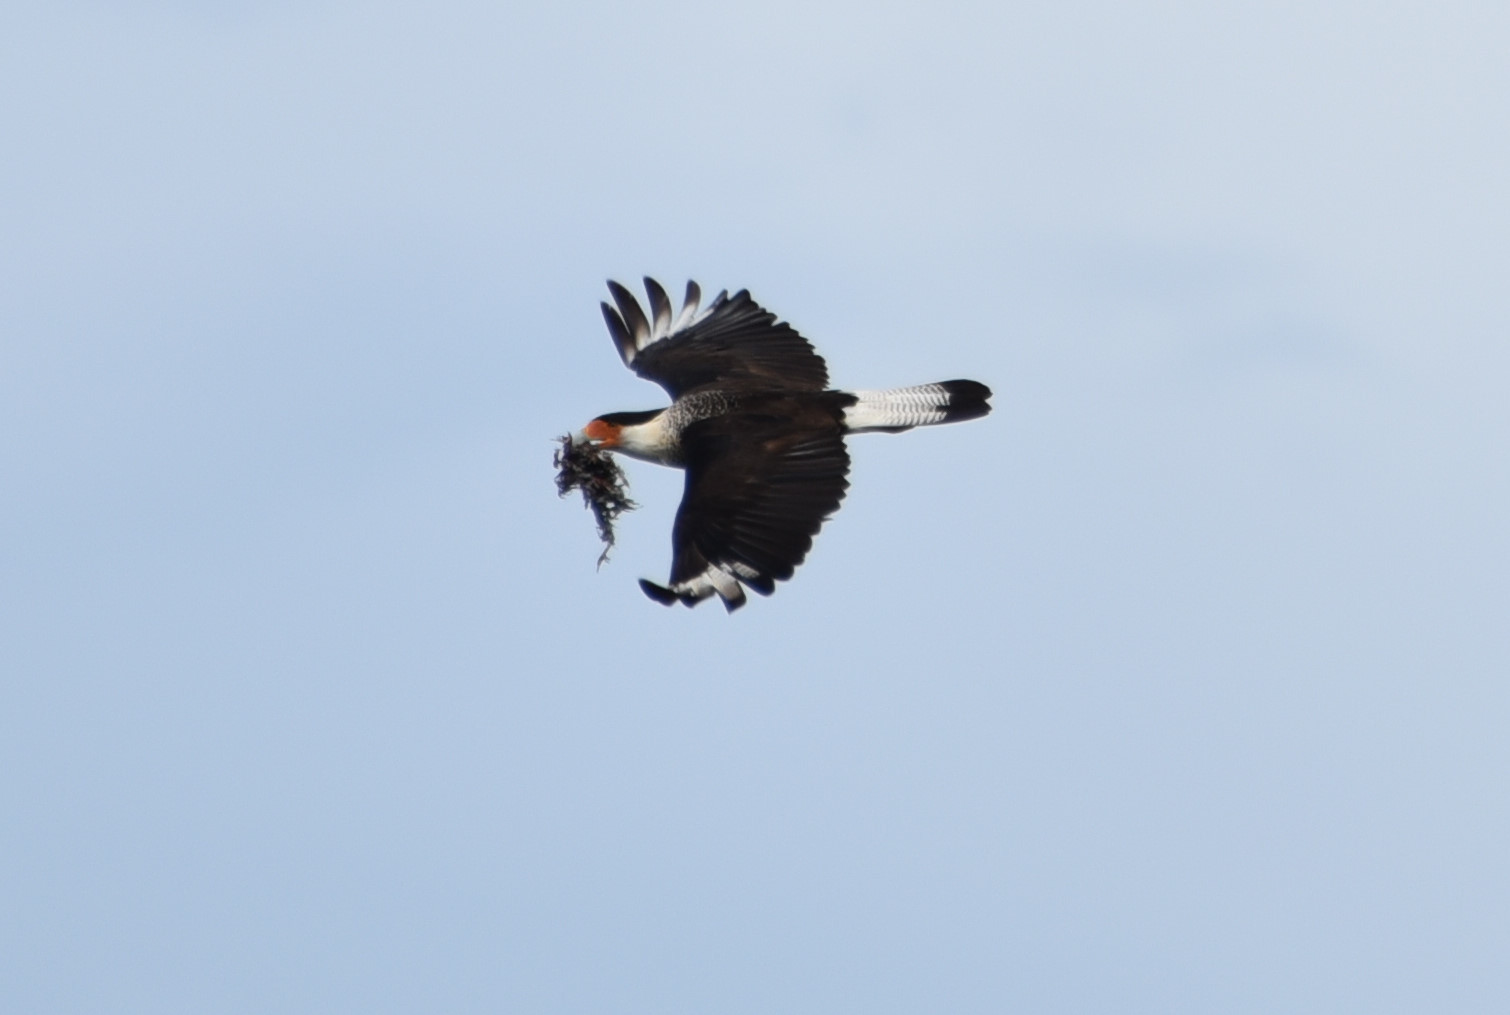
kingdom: Animalia
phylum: Chordata
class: Aves
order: Falconiformes
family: Falconidae
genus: Caracara
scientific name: Caracara plancus
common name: Southern caracara
